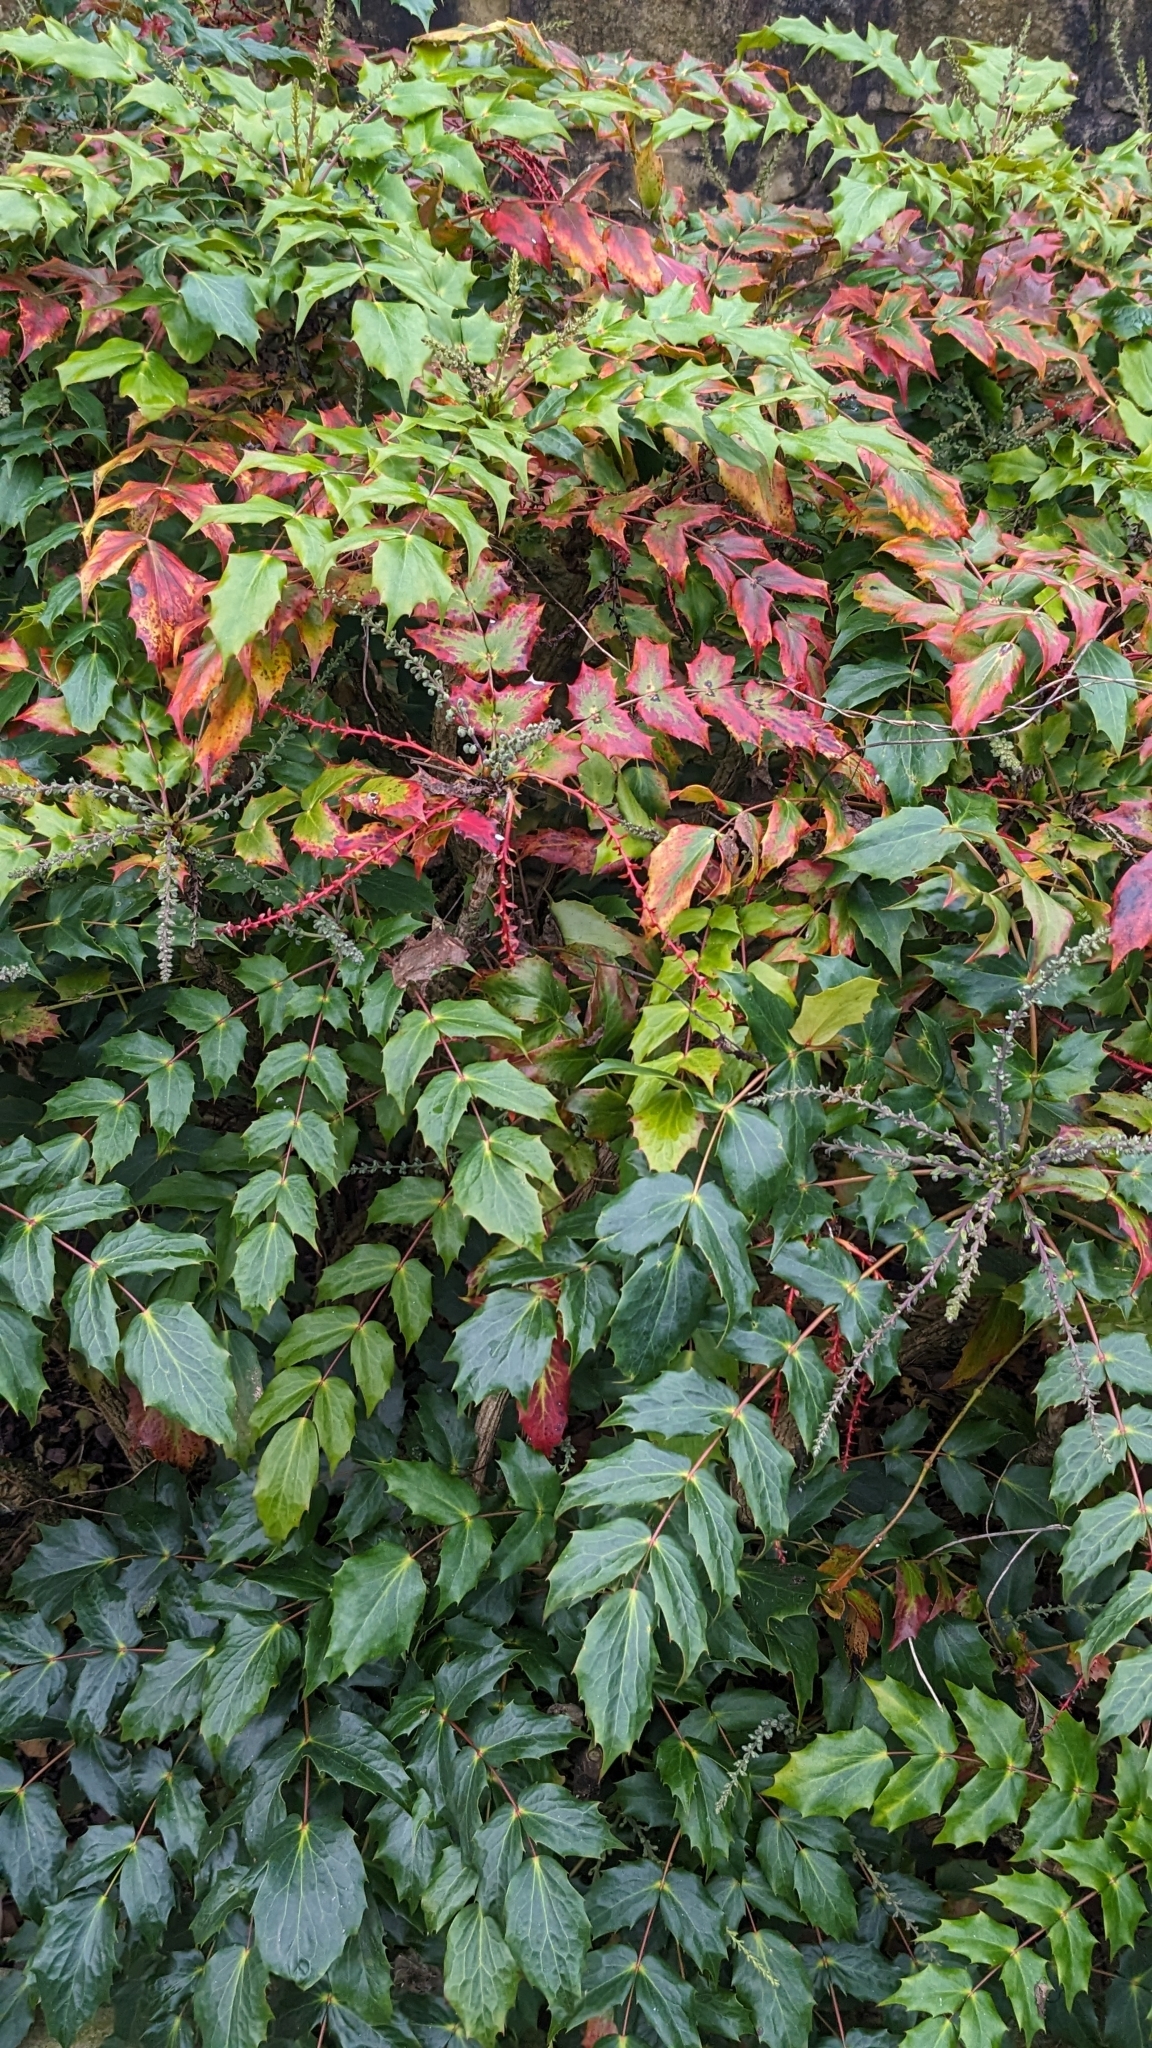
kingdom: Plantae
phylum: Tracheophyta
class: Magnoliopsida
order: Ranunculales
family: Berberidaceae
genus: Berberis
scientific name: Berberis hortensis
